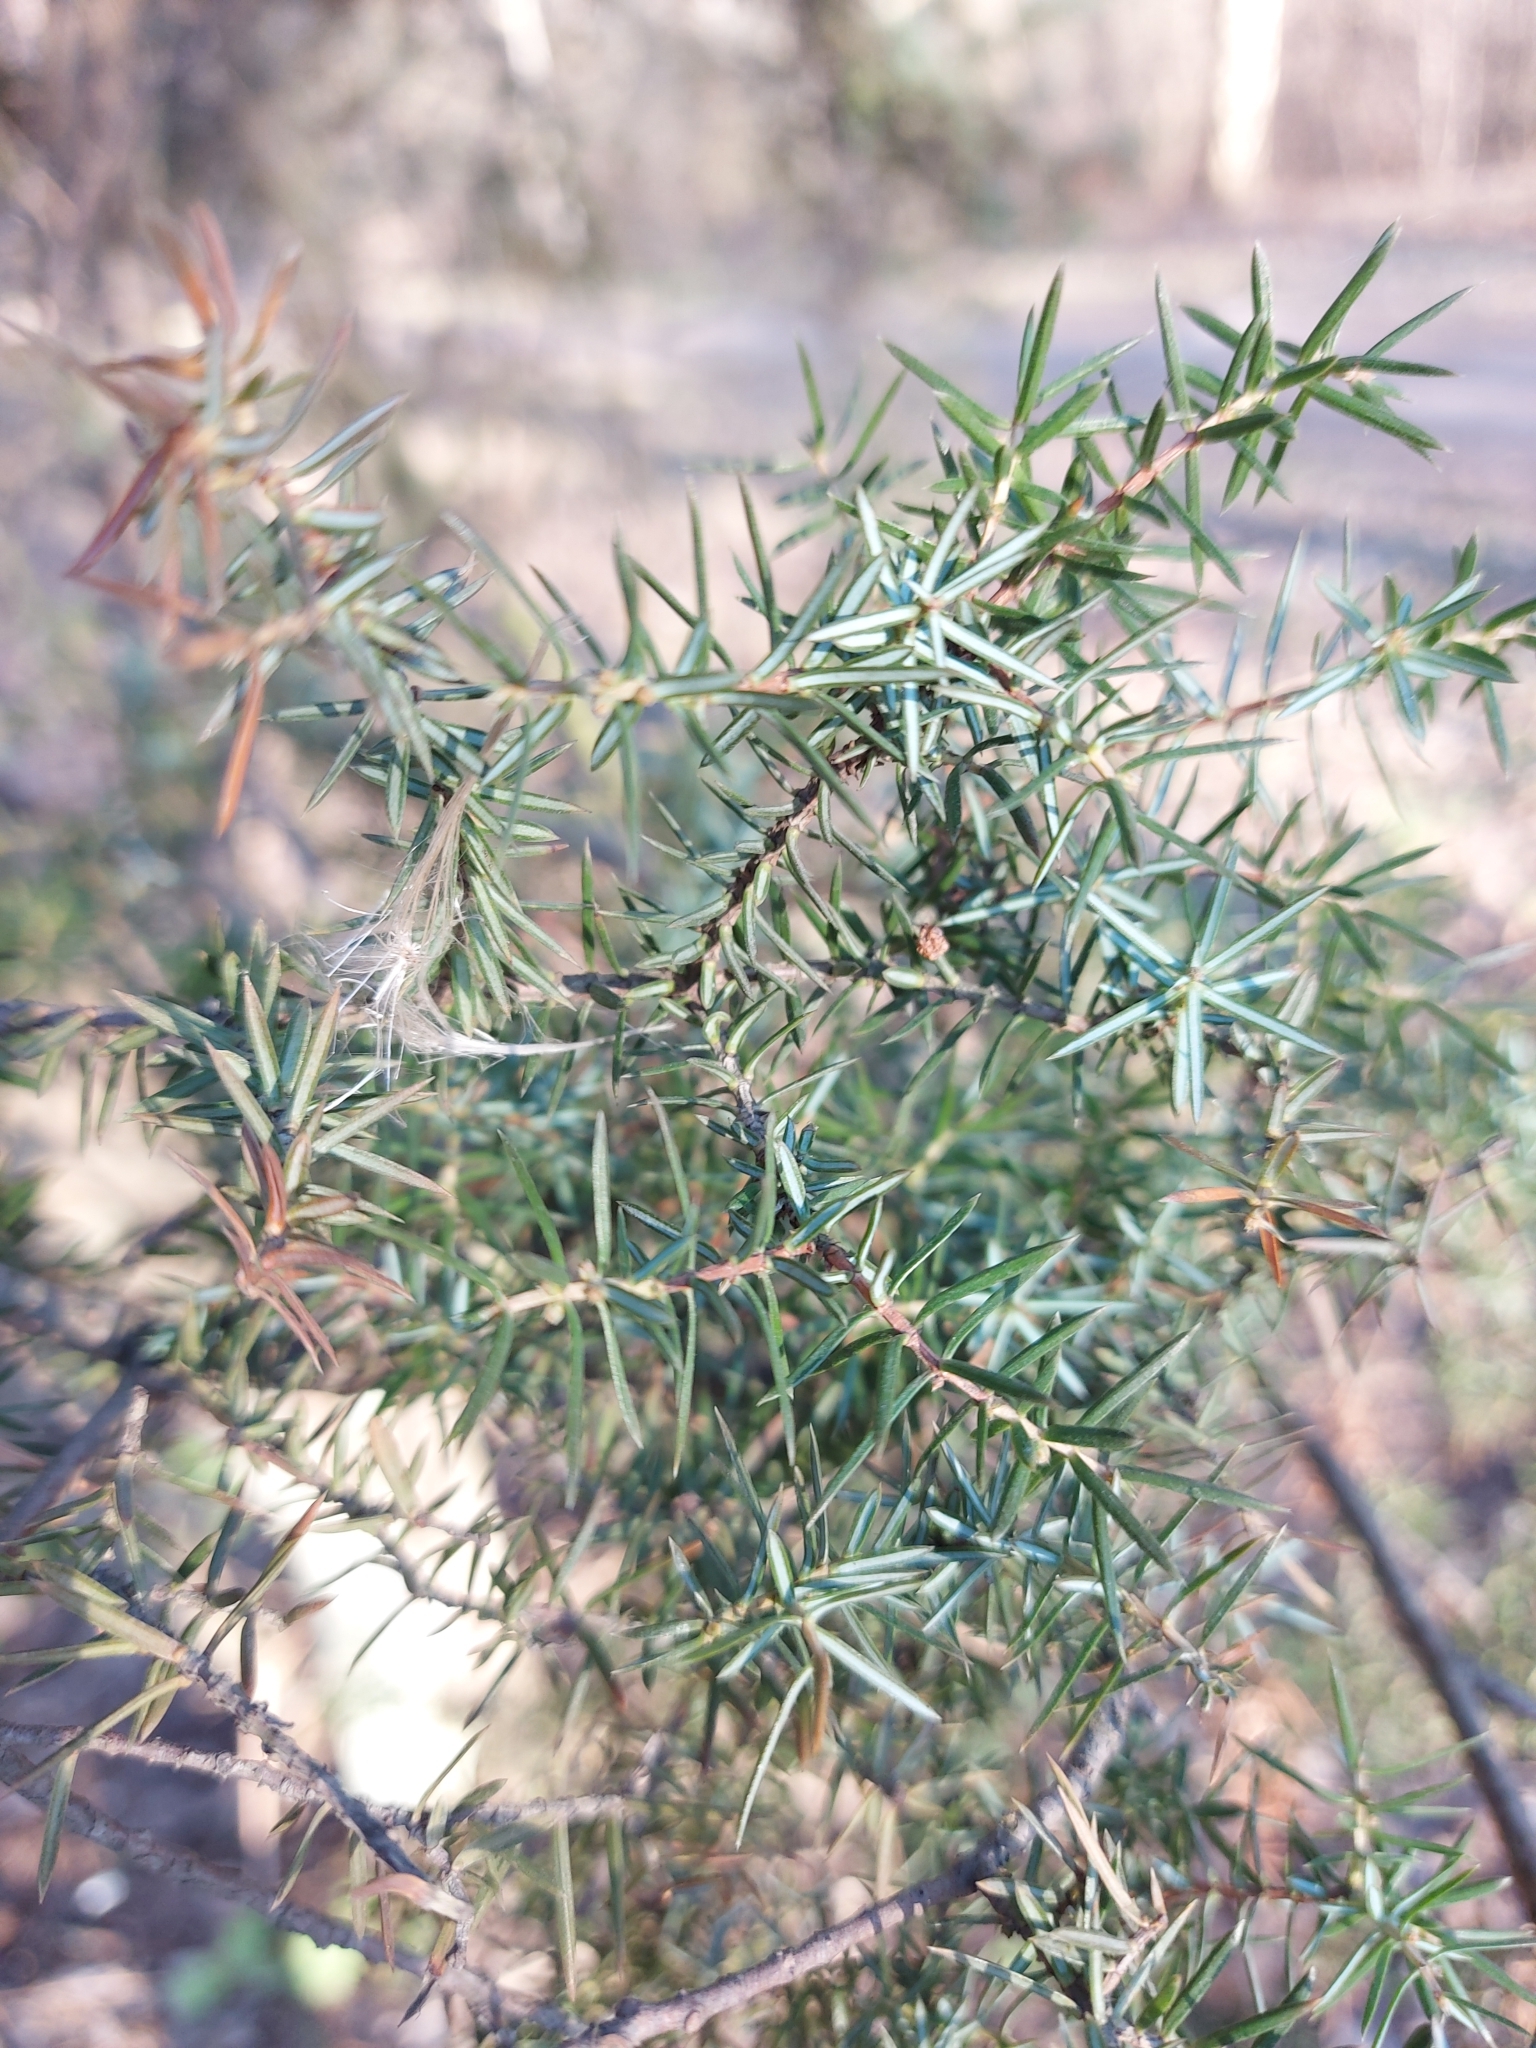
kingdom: Plantae
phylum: Tracheophyta
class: Pinopsida
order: Pinales
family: Cupressaceae
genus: Juniperus
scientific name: Juniperus communis
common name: Common juniper
